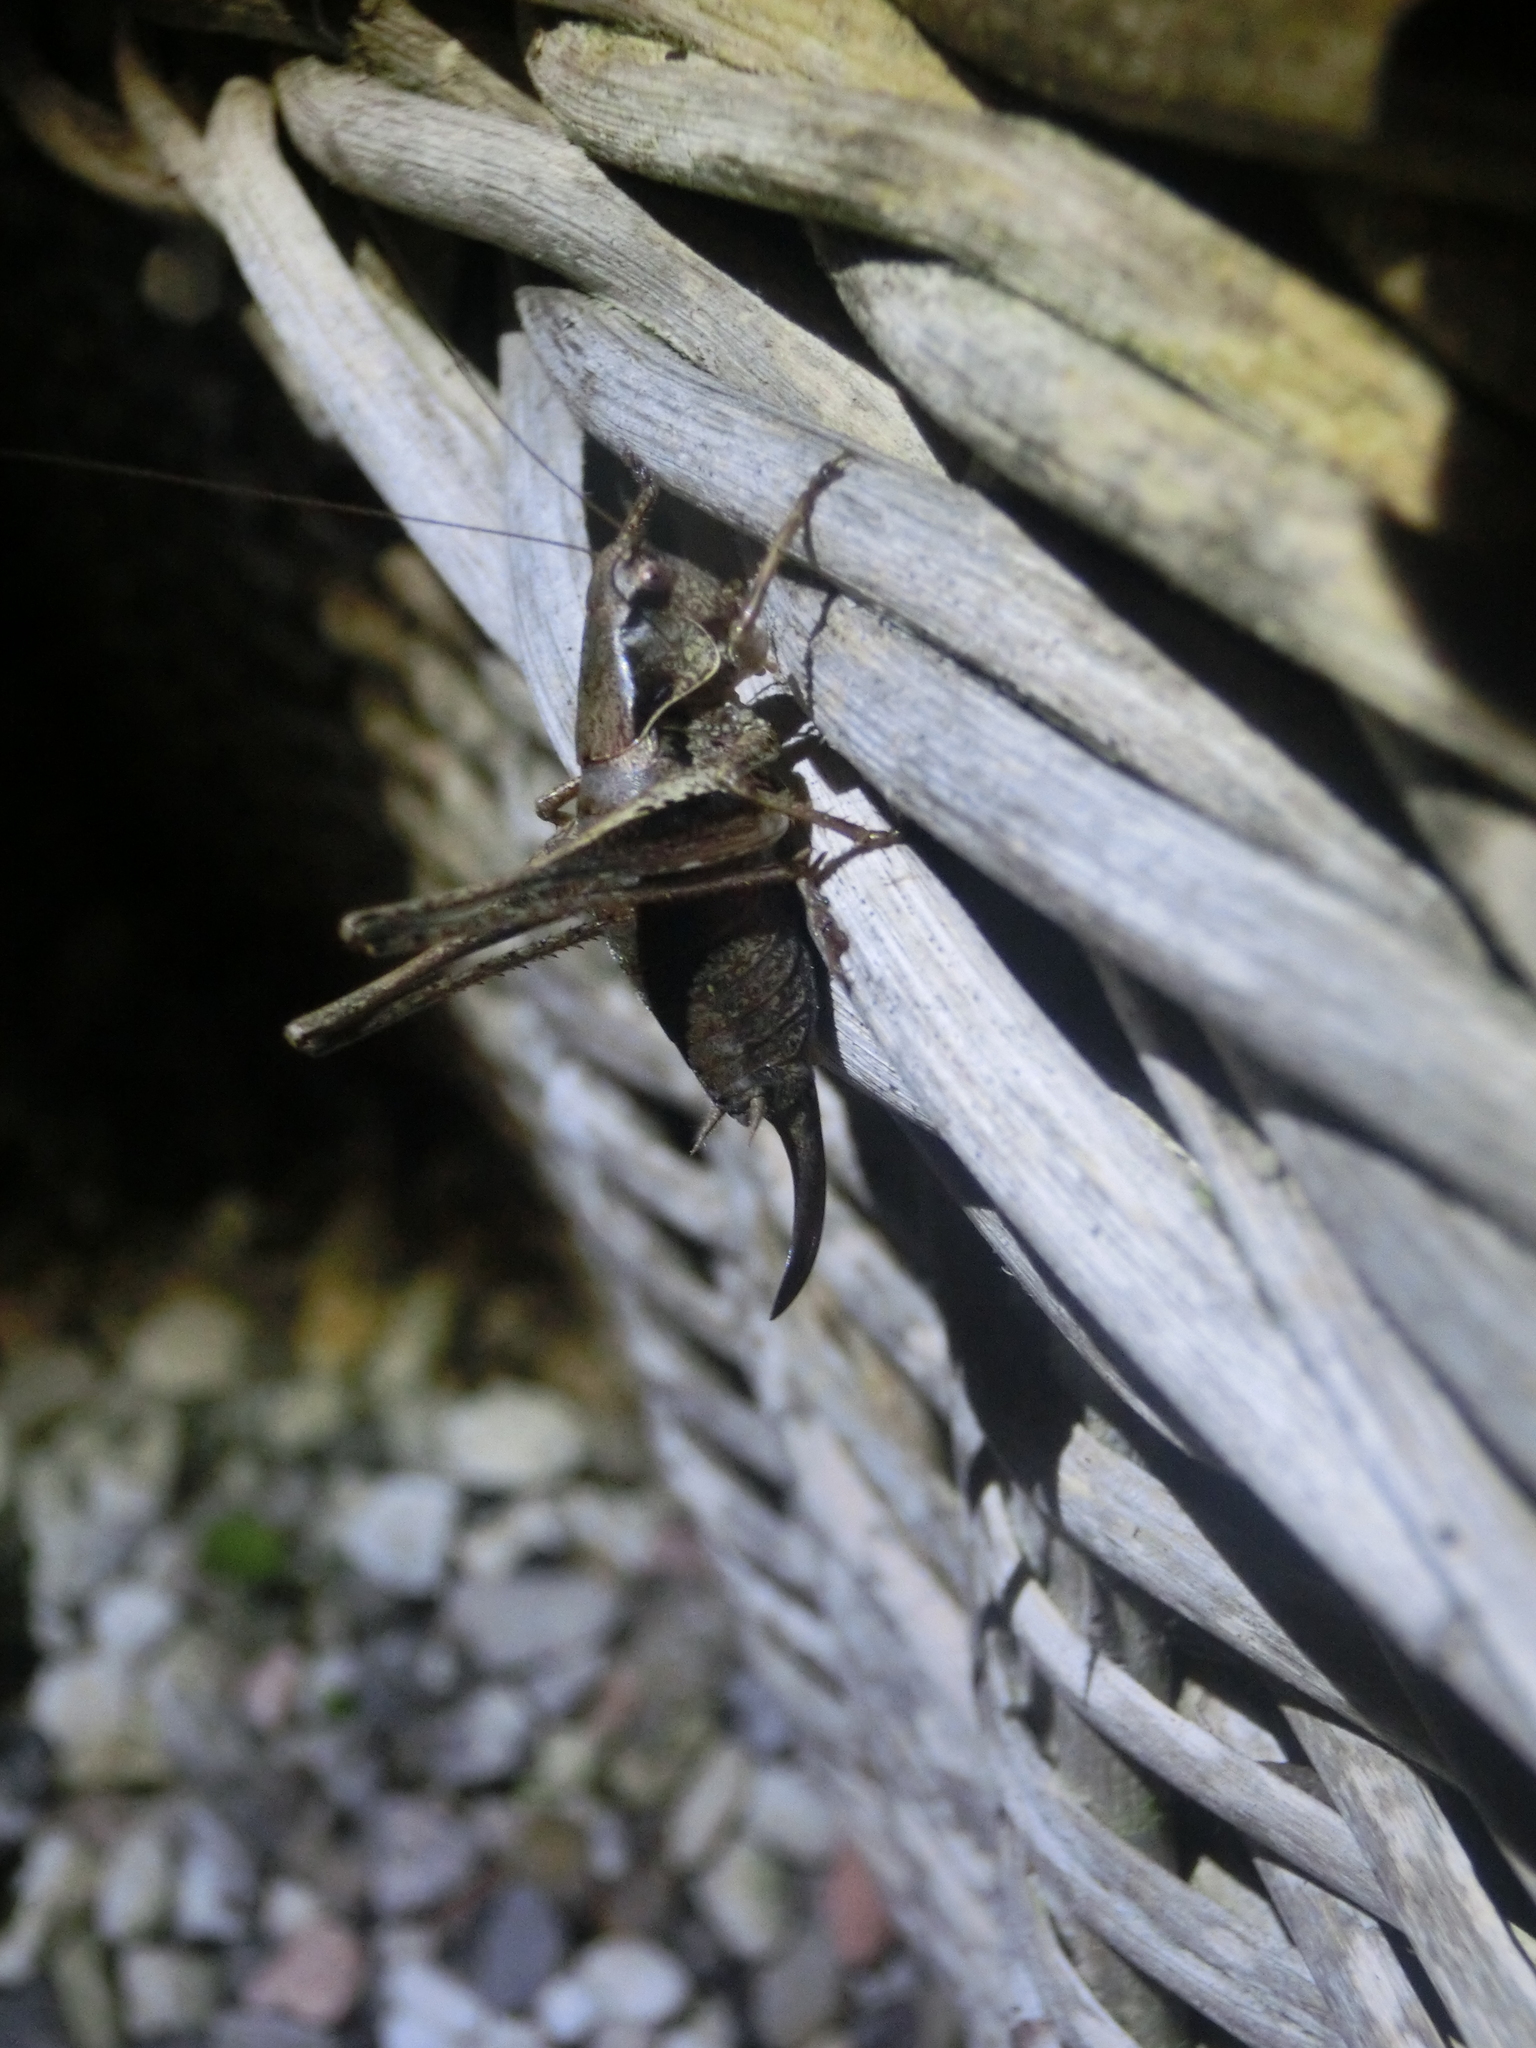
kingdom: Animalia
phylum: Arthropoda
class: Insecta
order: Orthoptera
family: Tettigoniidae
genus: Pholidoptera
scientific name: Pholidoptera griseoaptera
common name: Dark bush-cricket
